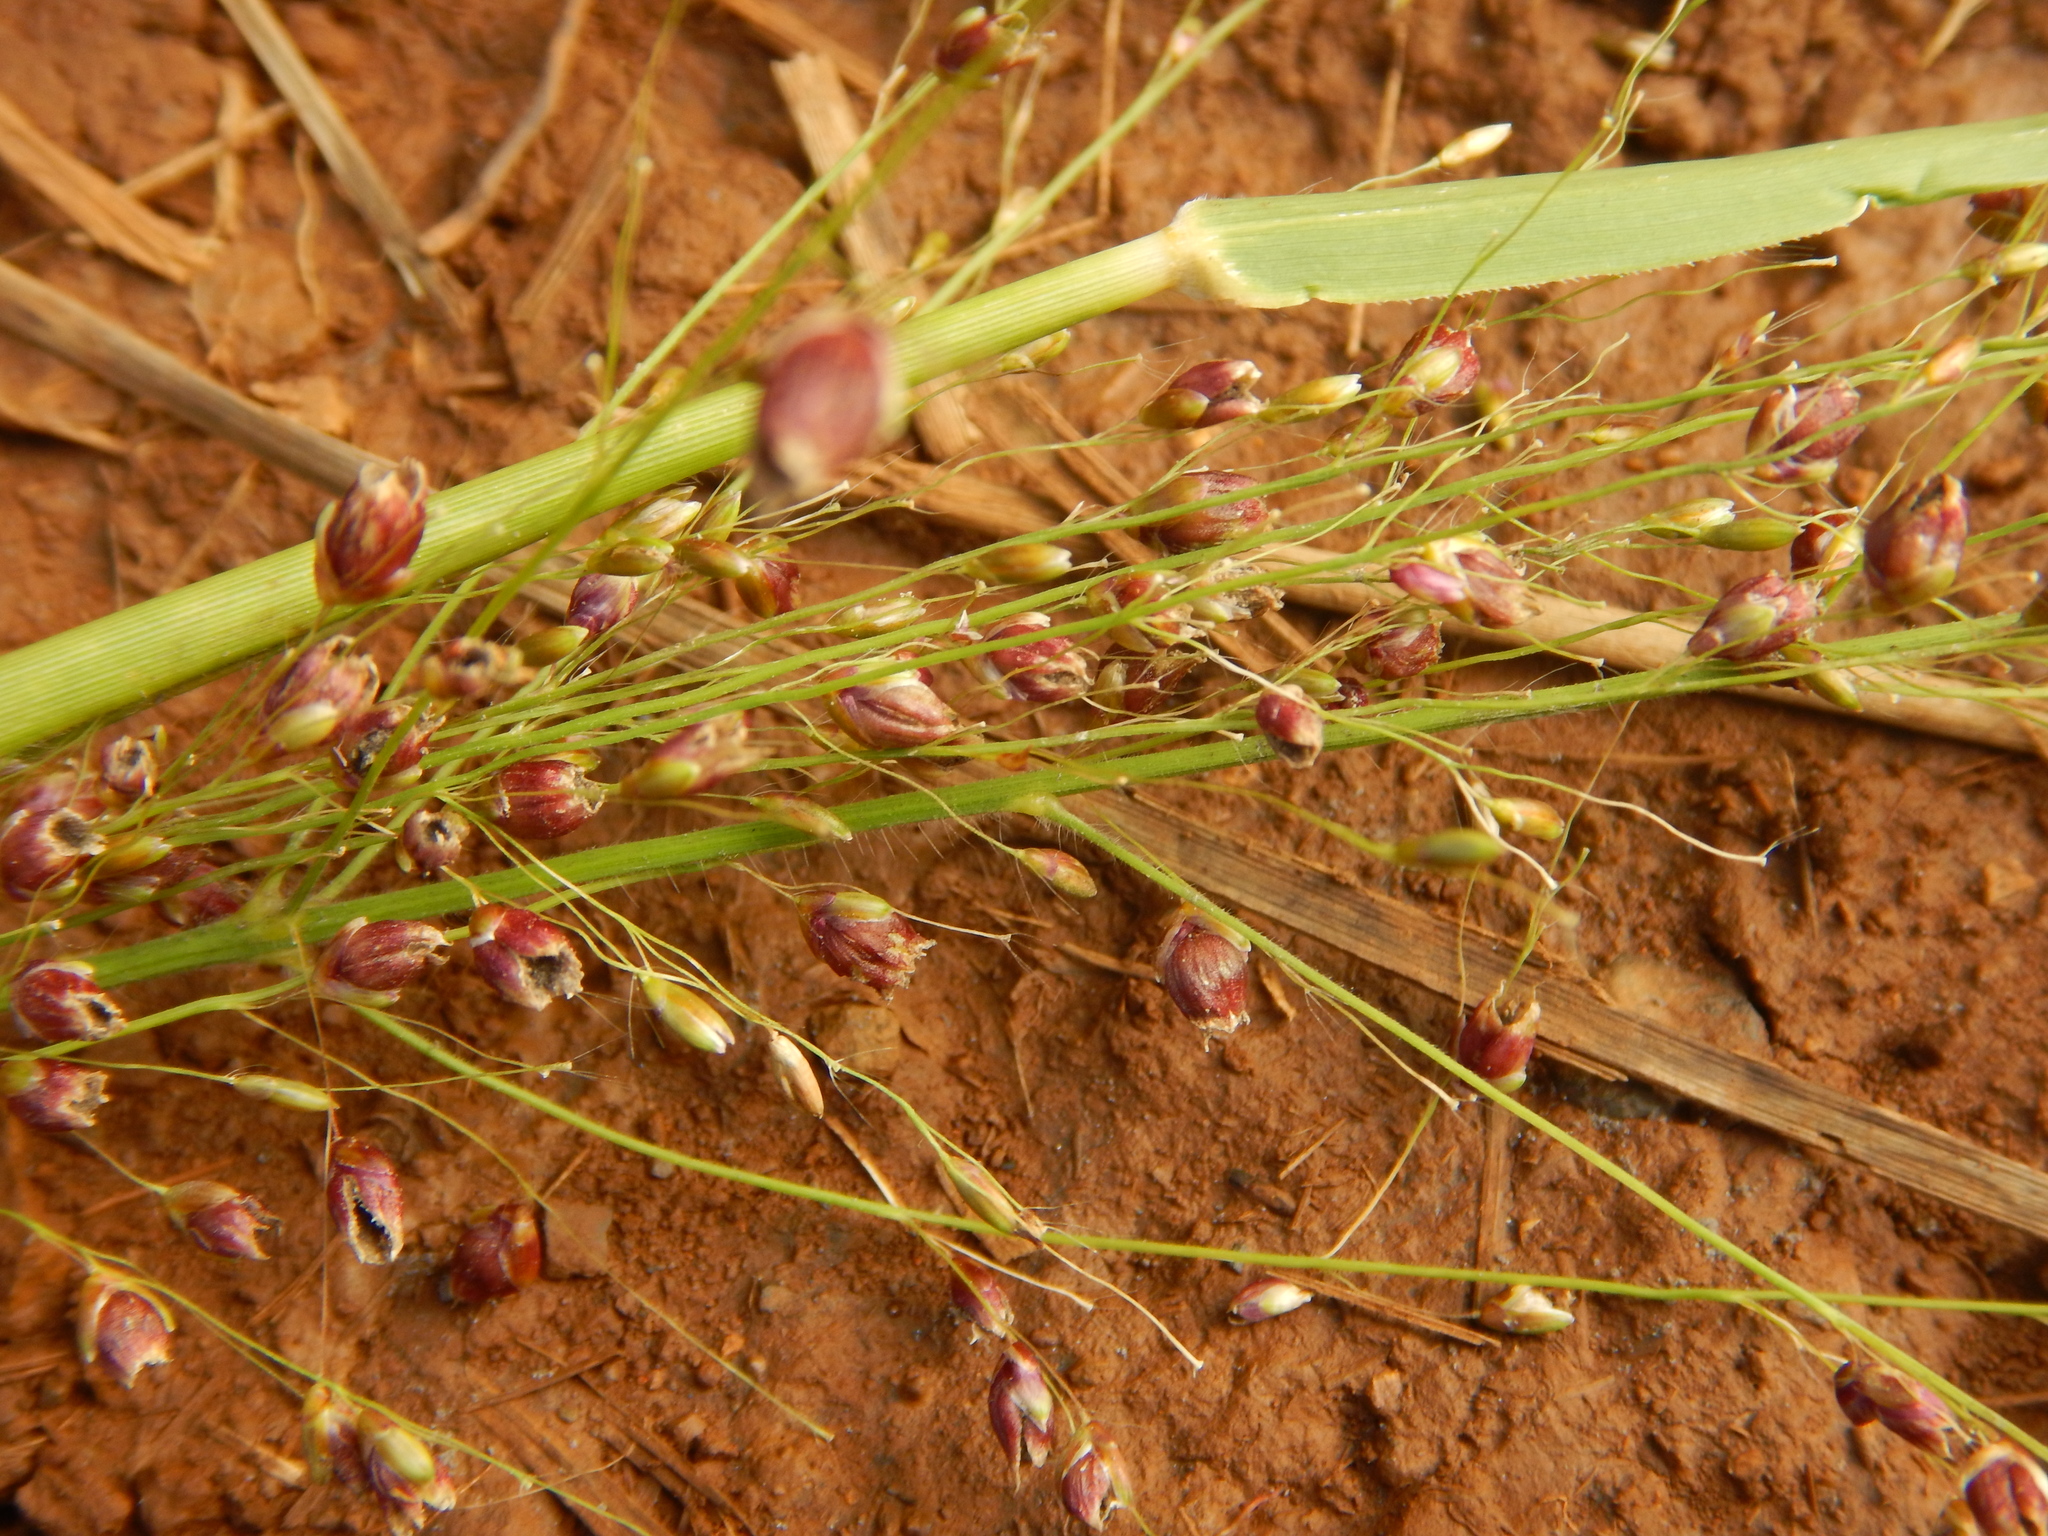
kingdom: Plantae
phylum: Tracheophyta
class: Liliopsida
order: Poales
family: Poaceae
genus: Megathyrsus
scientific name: Megathyrsus maximus
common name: Guineagrass
